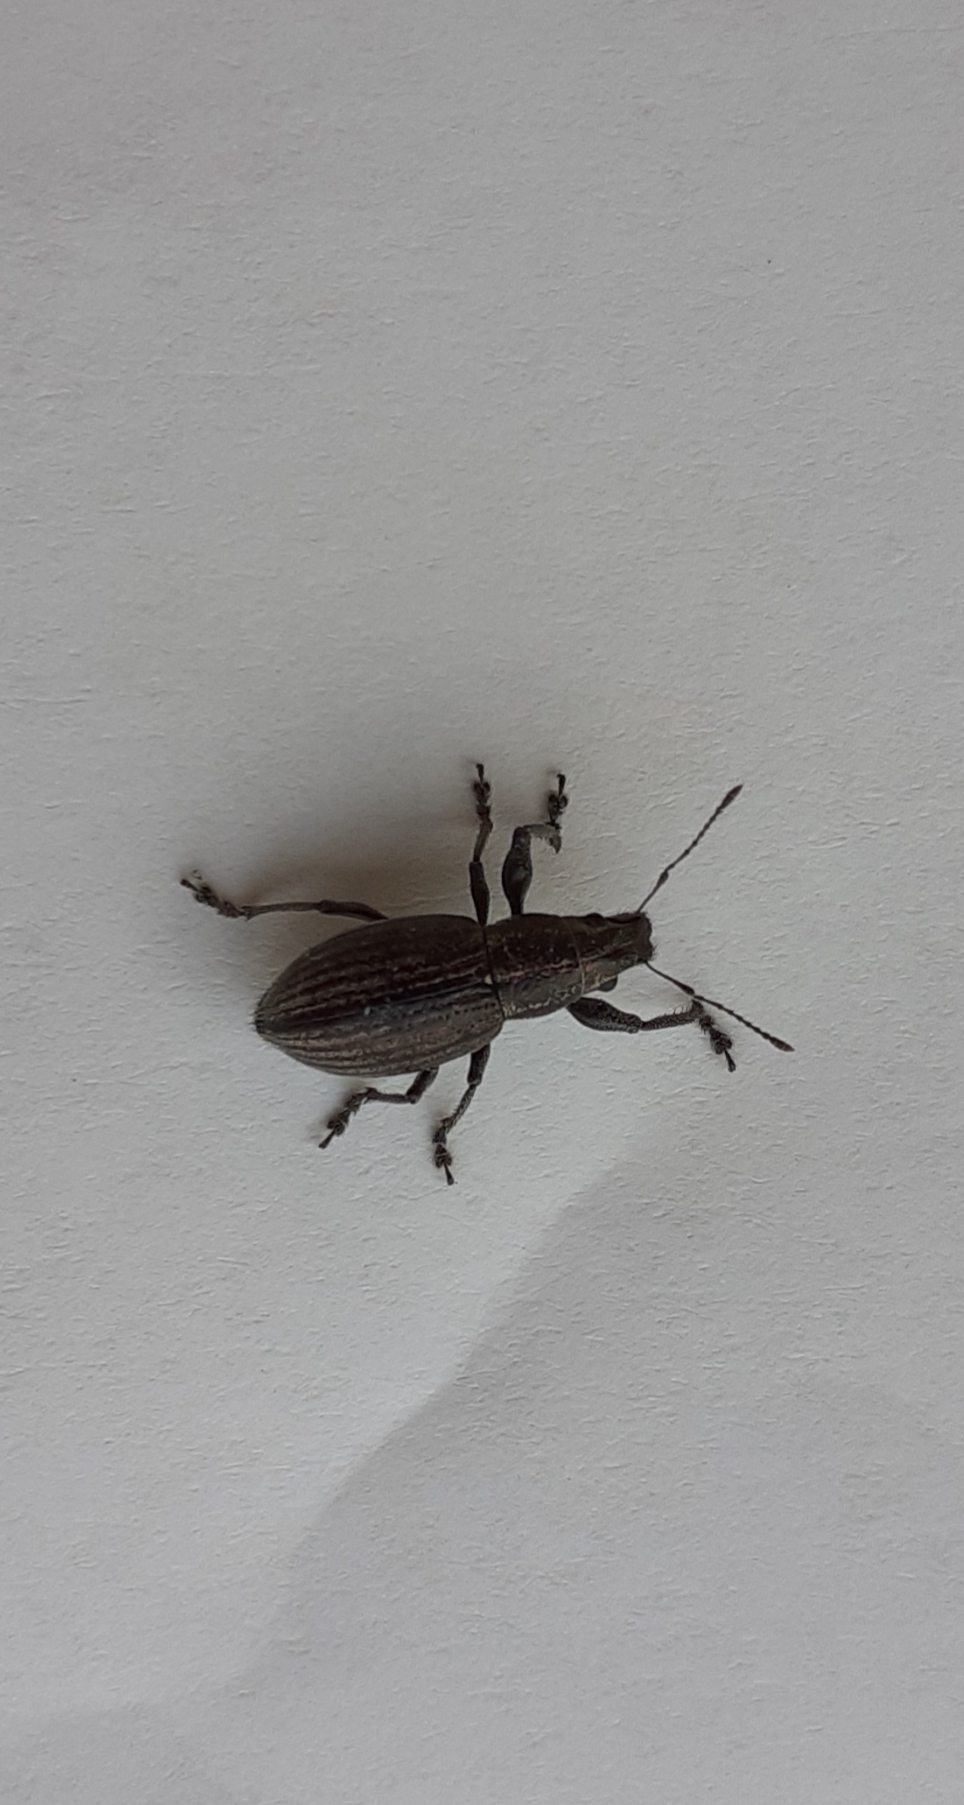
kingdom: Animalia
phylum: Arthropoda
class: Insecta
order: Coleoptera
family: Curculionidae
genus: Naupactus
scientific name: Naupactus tremolerasi
